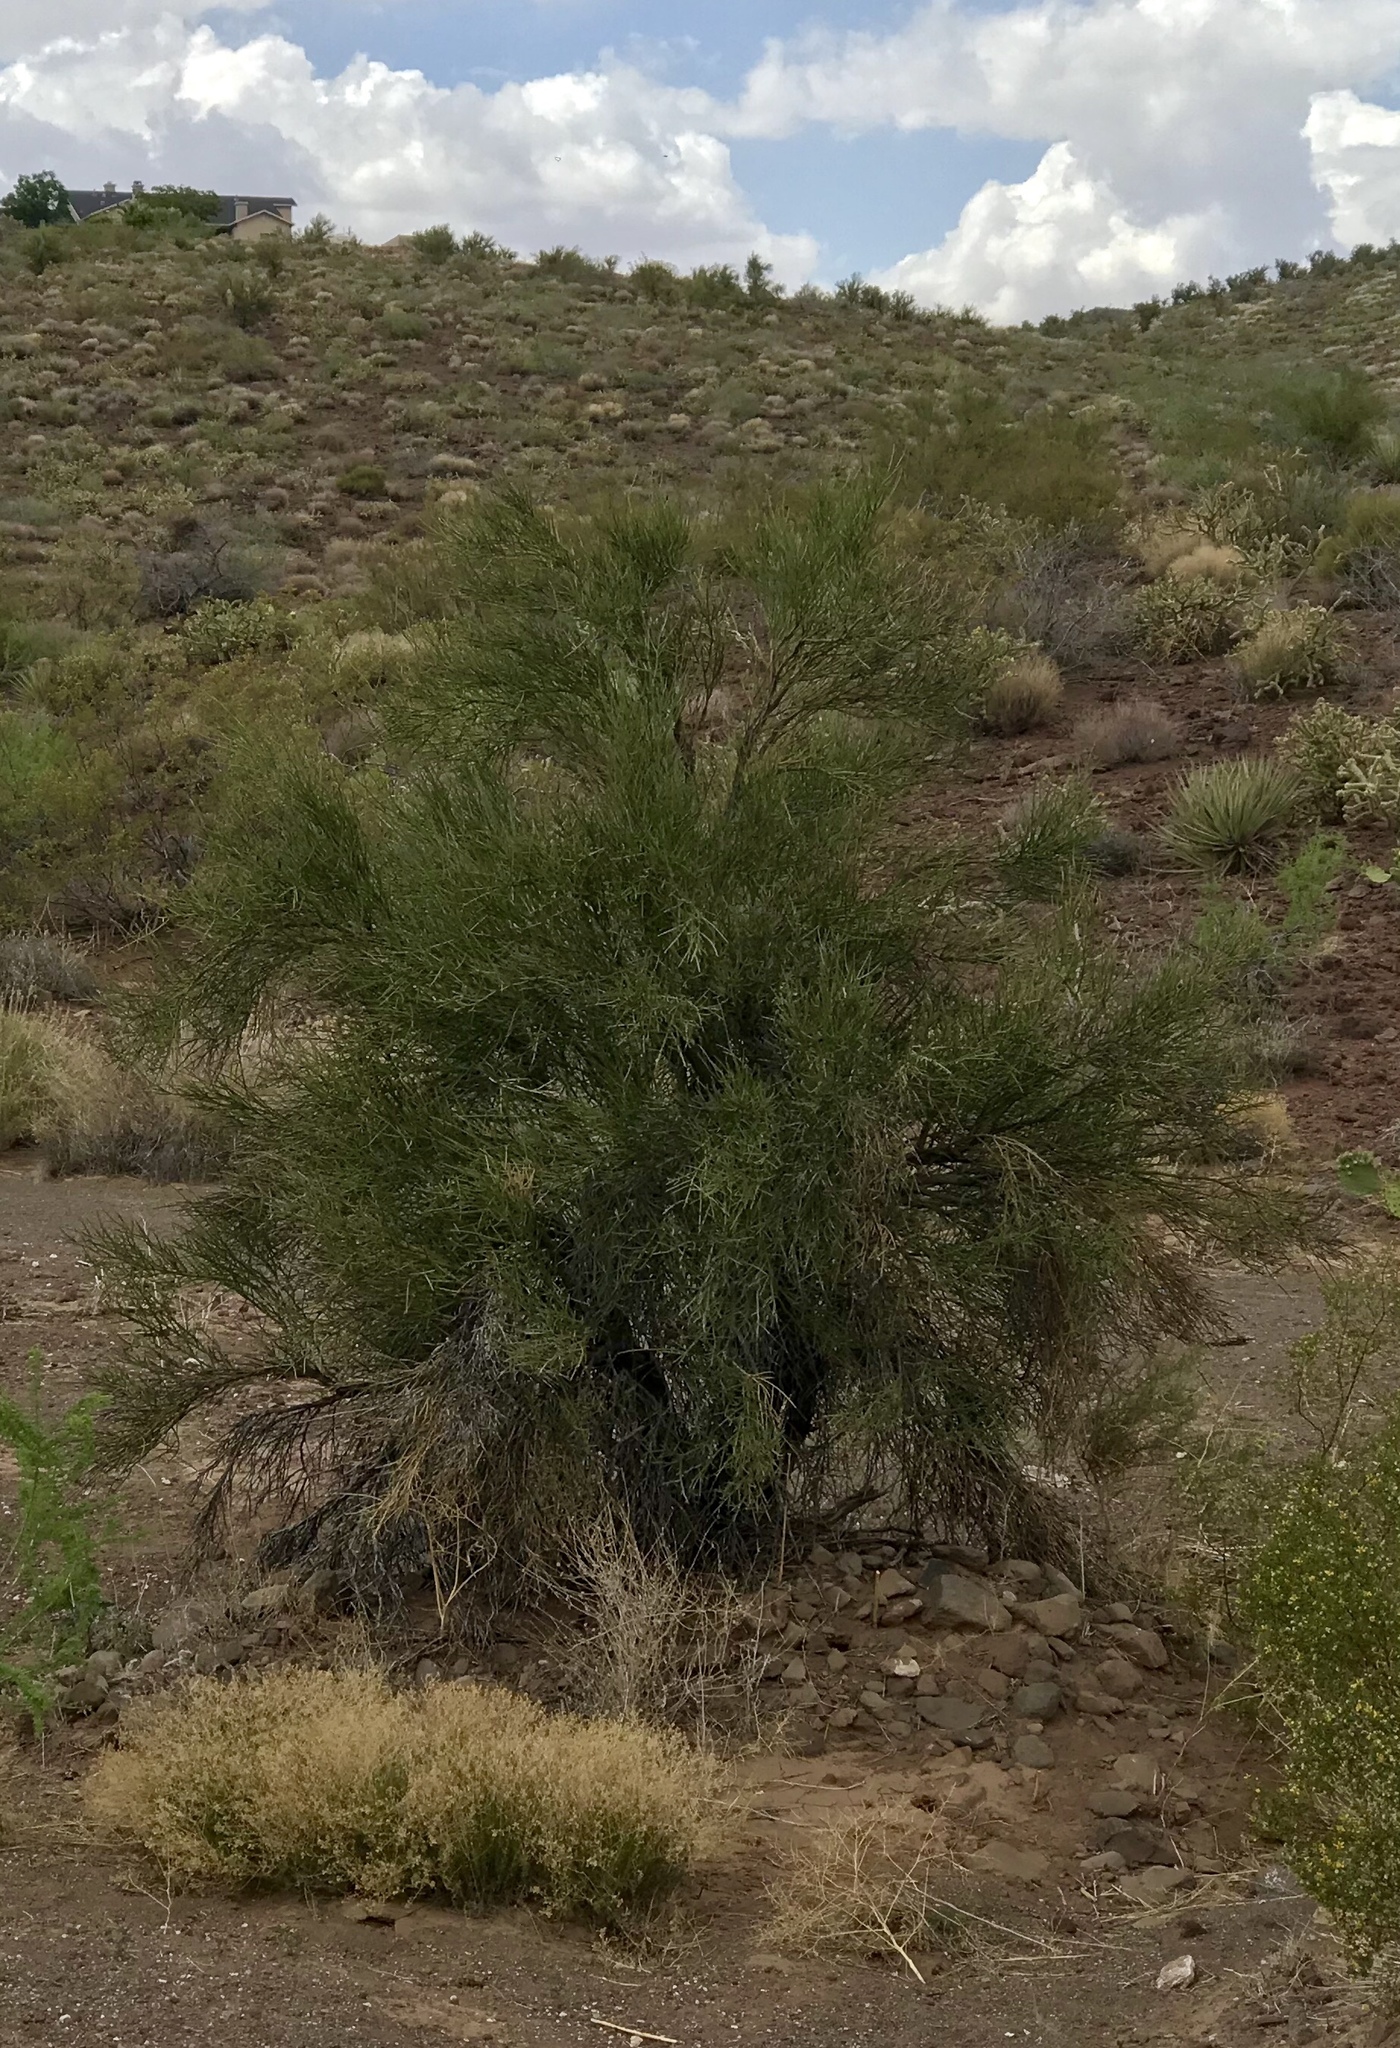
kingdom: Plantae
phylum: Tracheophyta
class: Magnoliopsida
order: Celastrales
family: Celastraceae
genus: Canotia
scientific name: Canotia holacantha
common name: Crucifixion thorns
